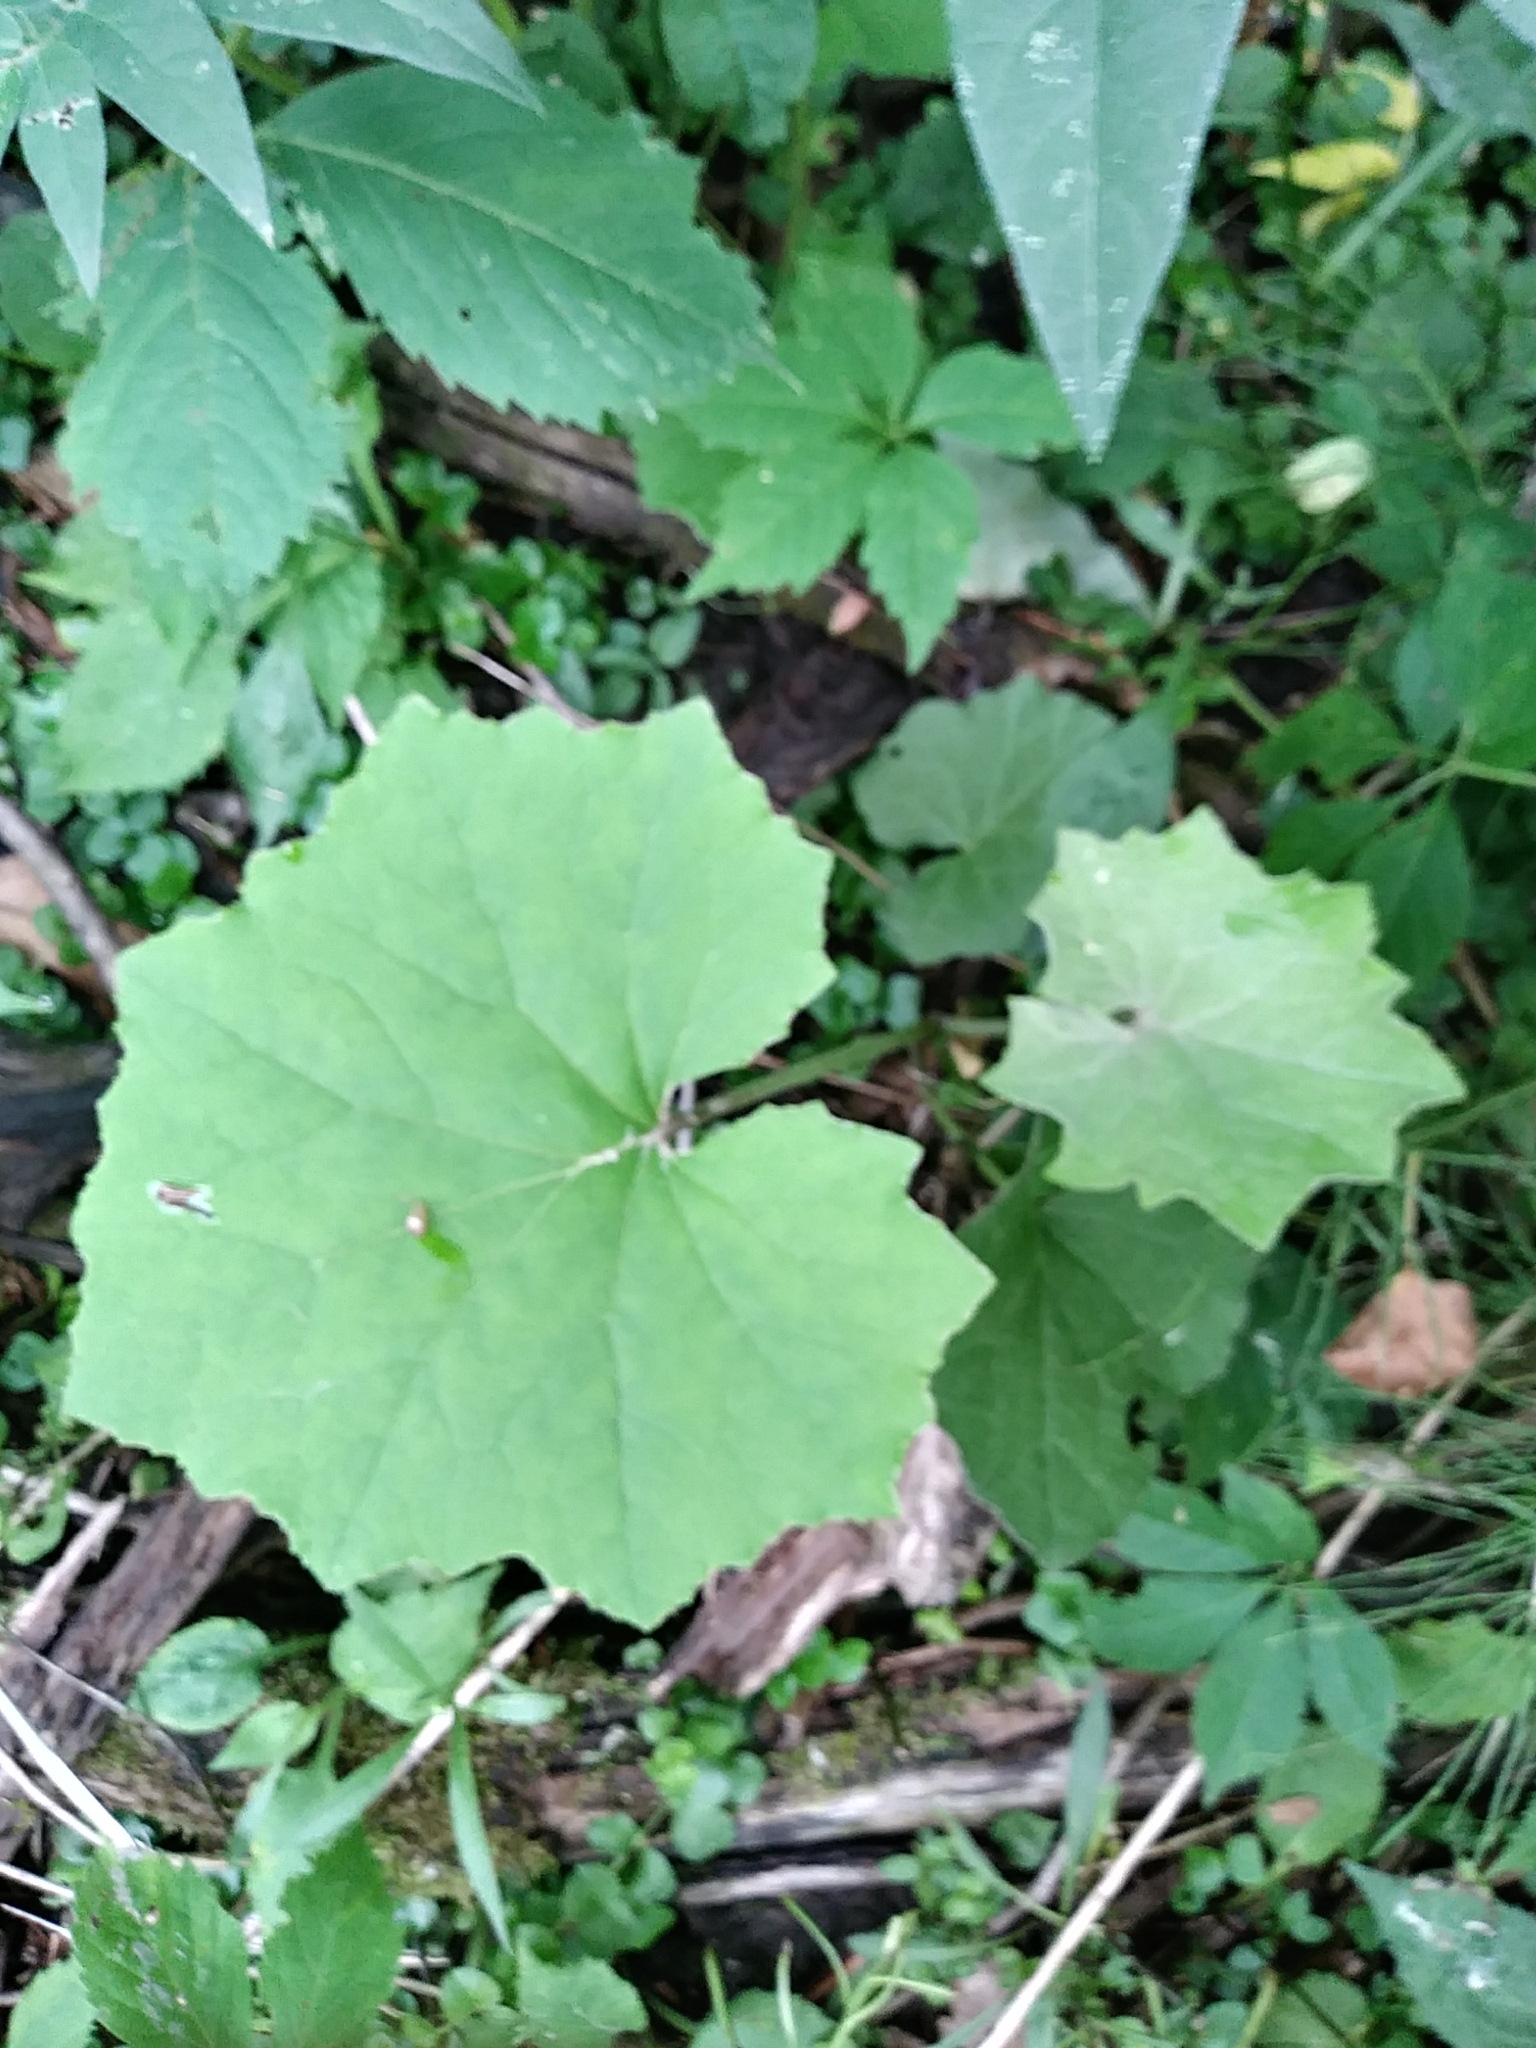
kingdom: Plantae
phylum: Tracheophyta
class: Magnoliopsida
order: Asterales
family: Asteraceae
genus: Tussilago
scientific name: Tussilago farfara
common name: Coltsfoot
